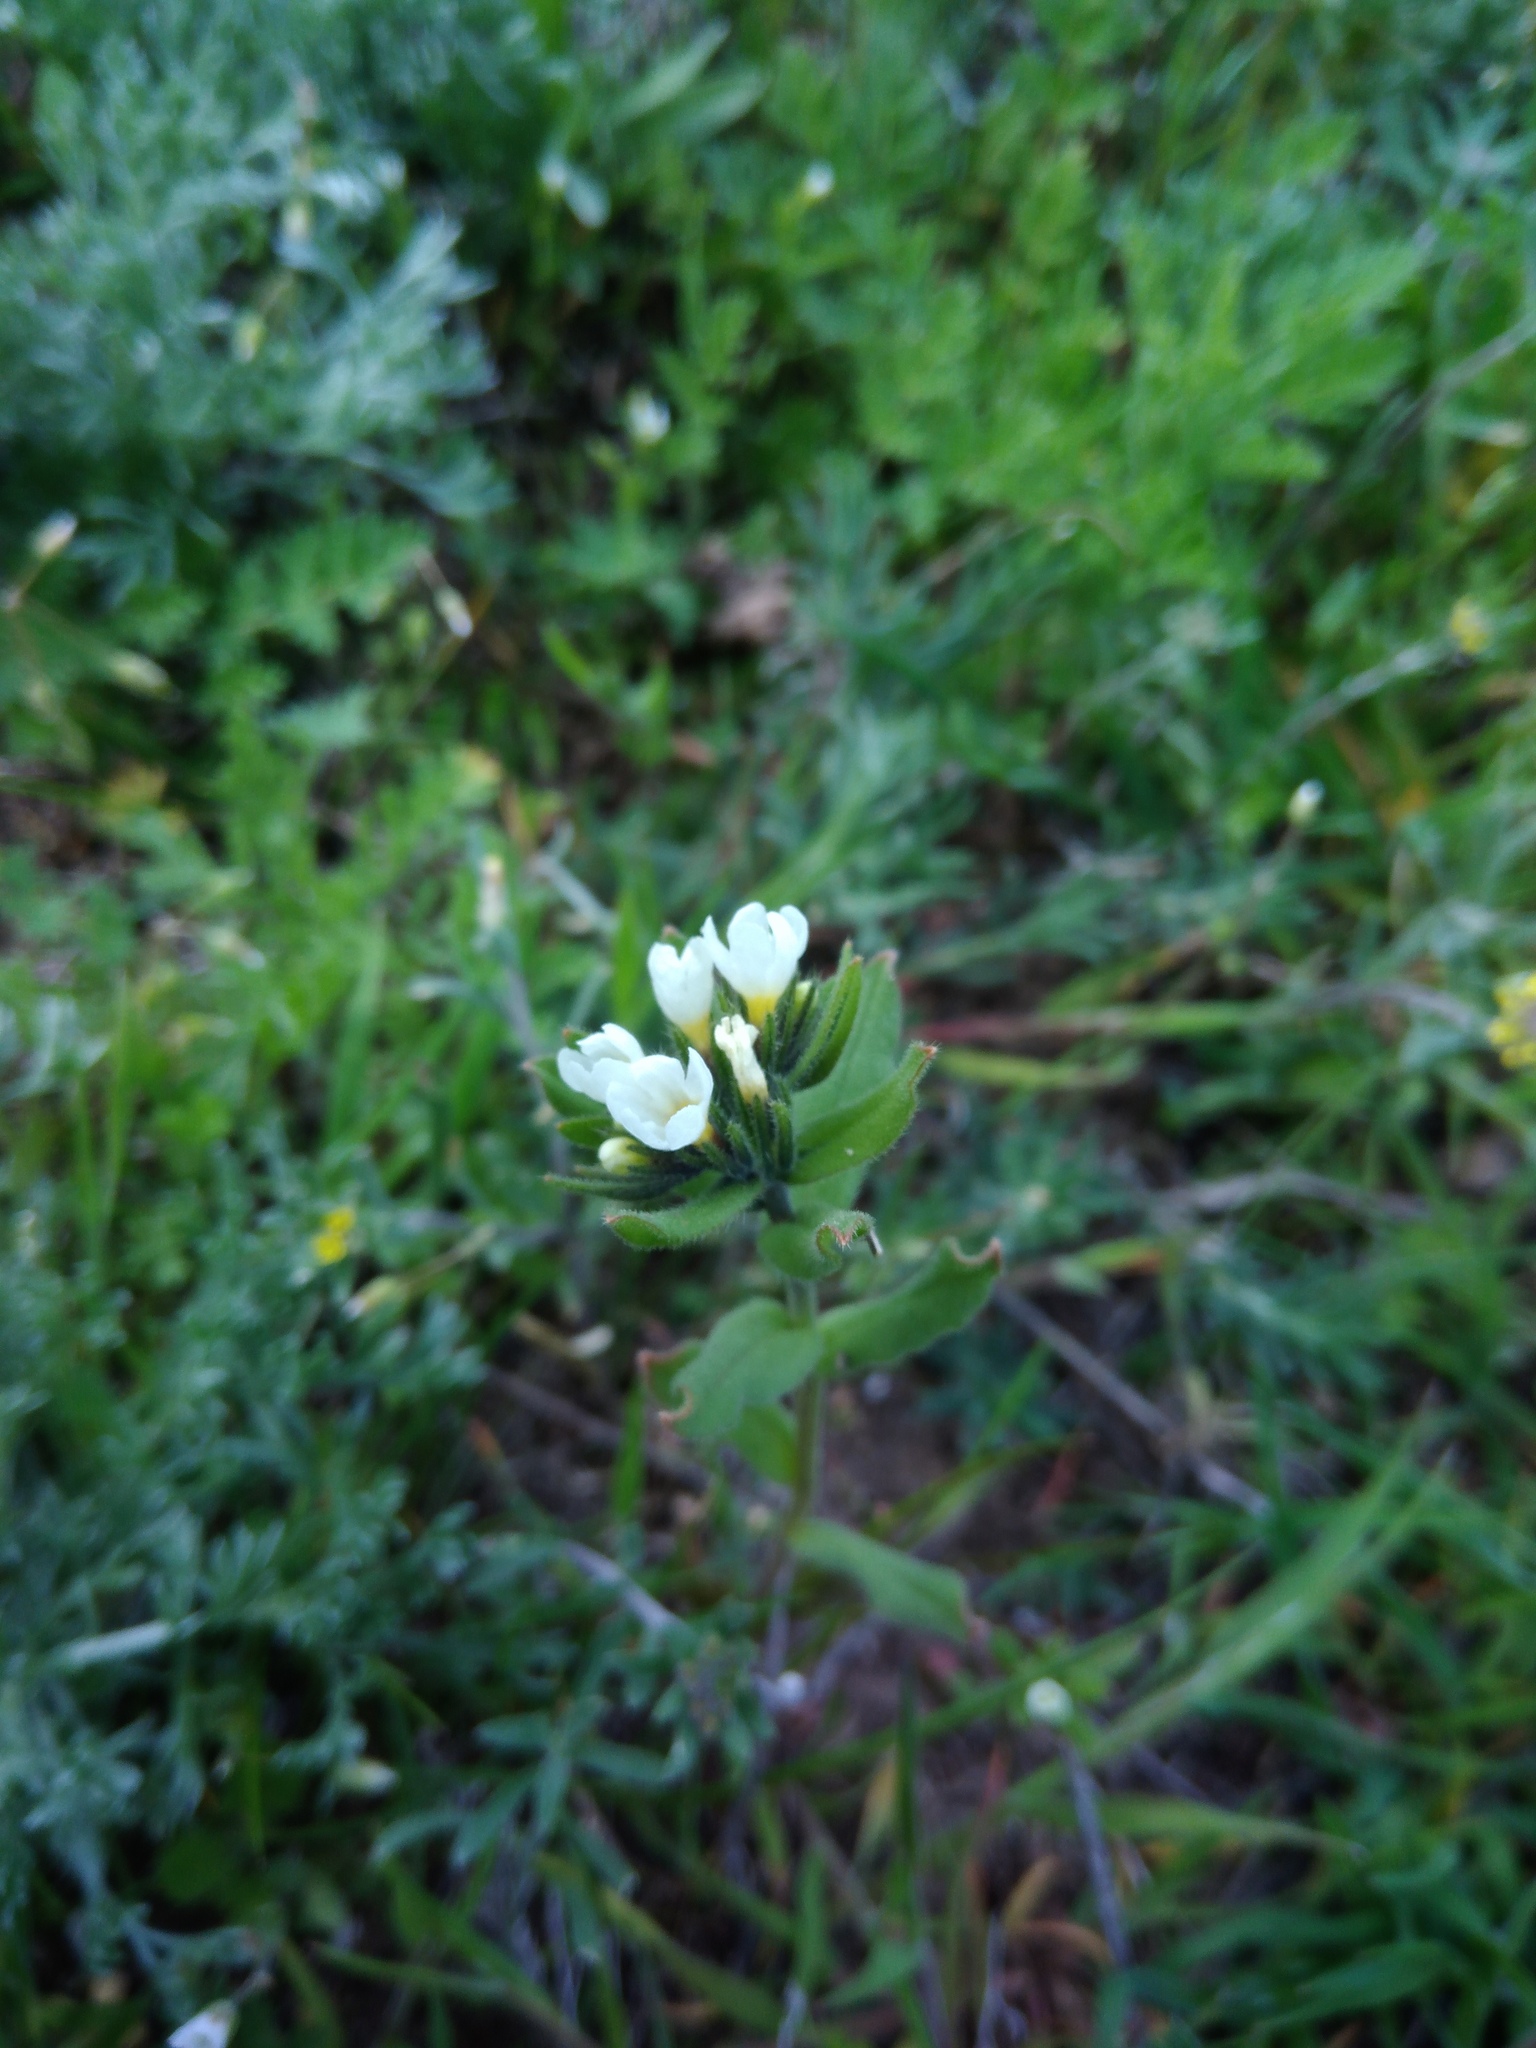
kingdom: Plantae
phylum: Tracheophyta
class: Magnoliopsida
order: Boraginales
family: Boraginaceae
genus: Buglossoides
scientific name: Buglossoides arvensis
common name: Corn gromwell
